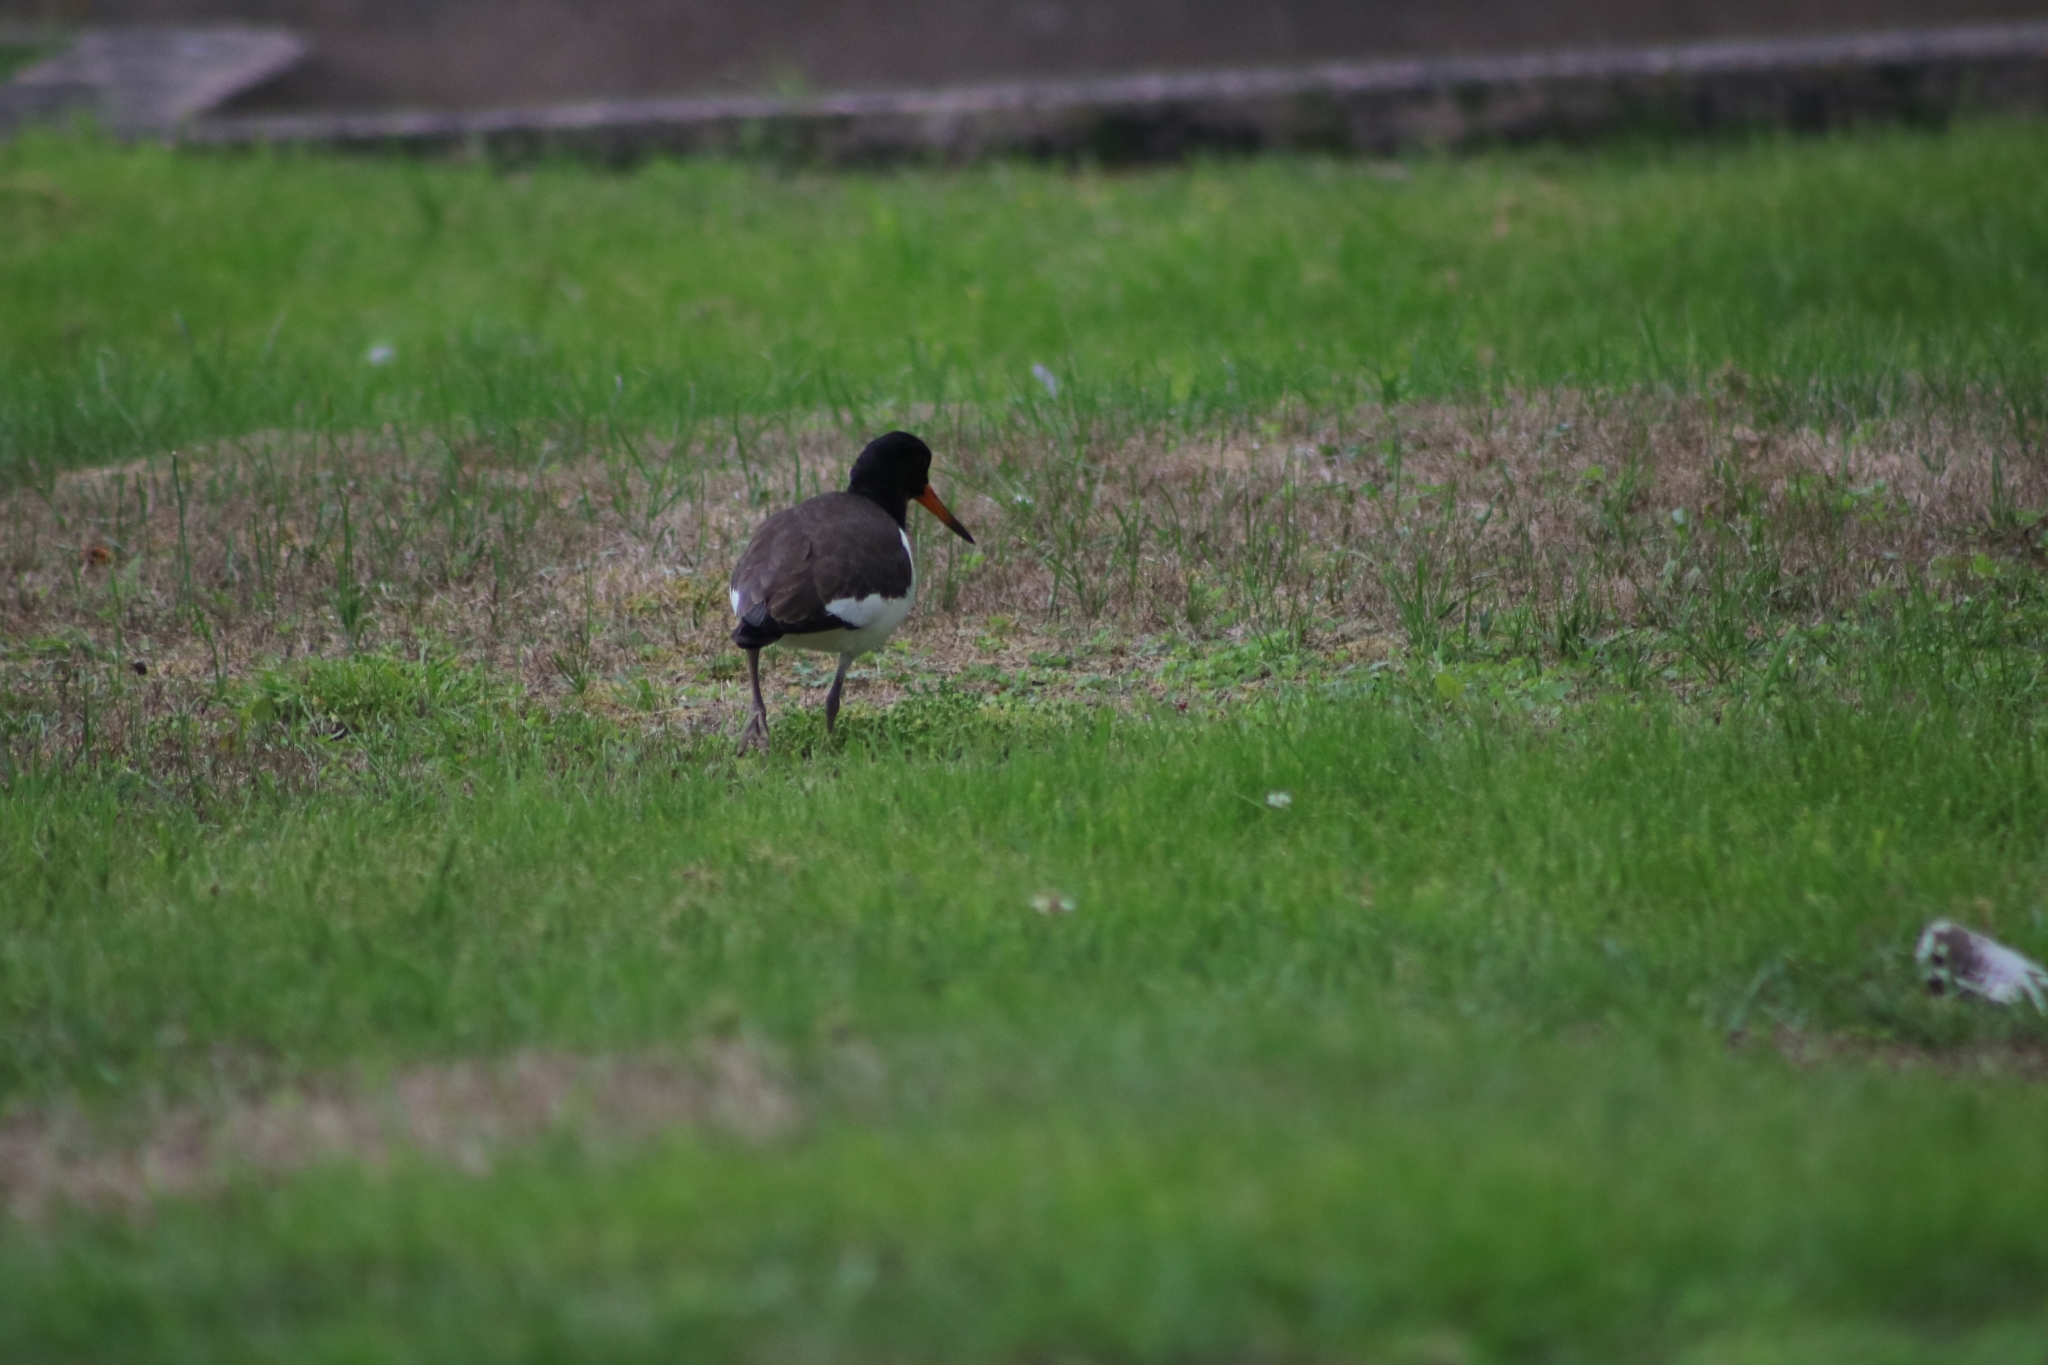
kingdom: Animalia
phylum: Chordata
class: Aves
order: Charadriiformes
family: Haematopodidae
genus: Haematopus
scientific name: Haematopus ostralegus
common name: Eurasian oystercatcher
